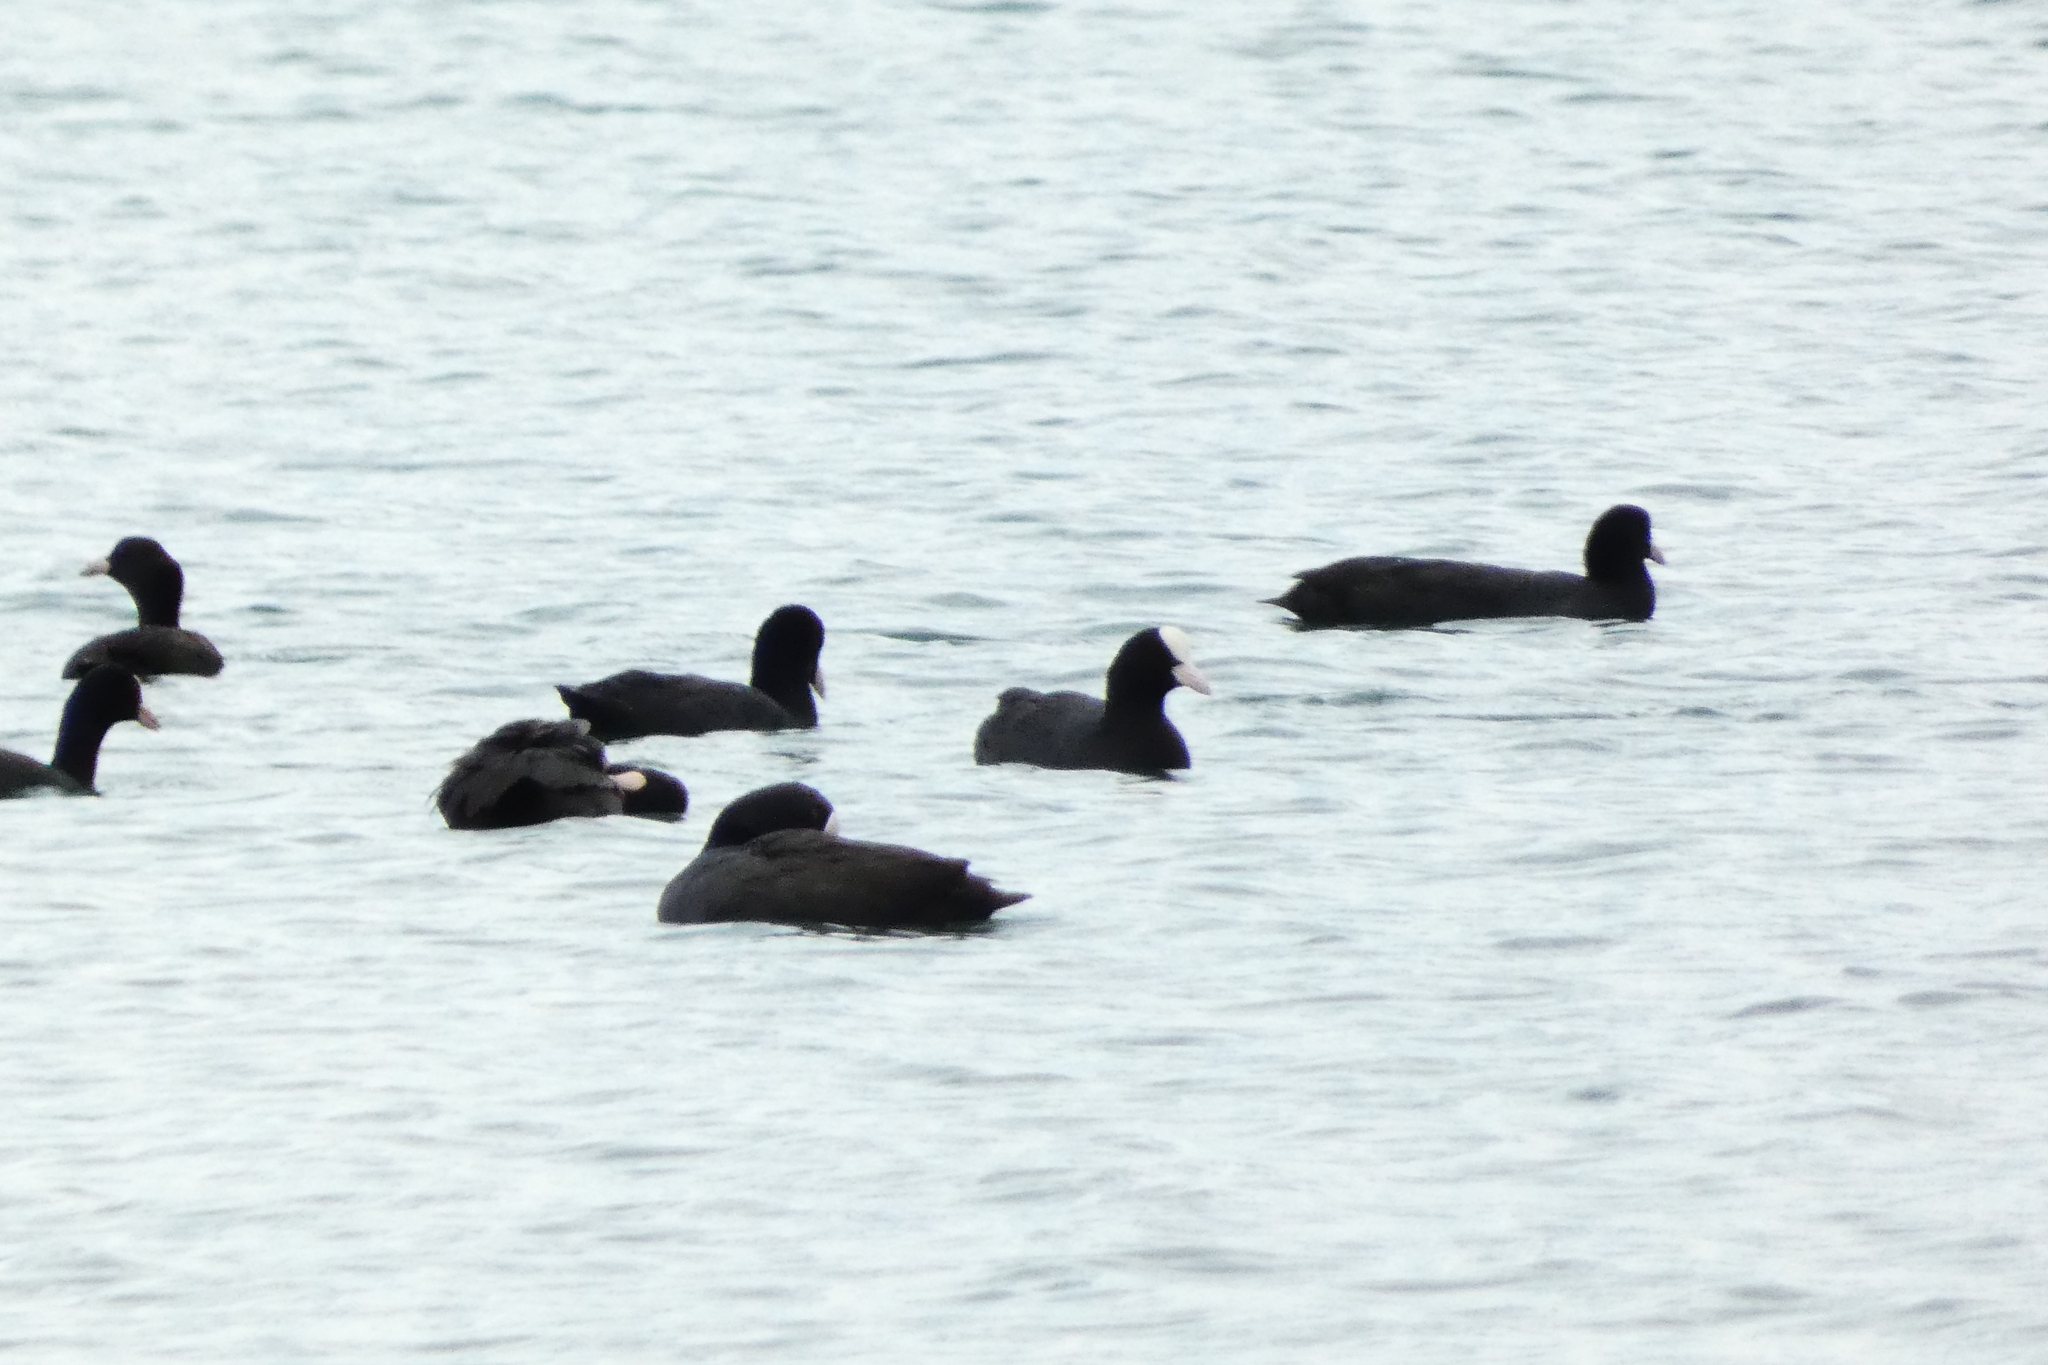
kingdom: Animalia
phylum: Chordata
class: Aves
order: Gruiformes
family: Rallidae
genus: Fulica
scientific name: Fulica atra
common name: Eurasian coot
